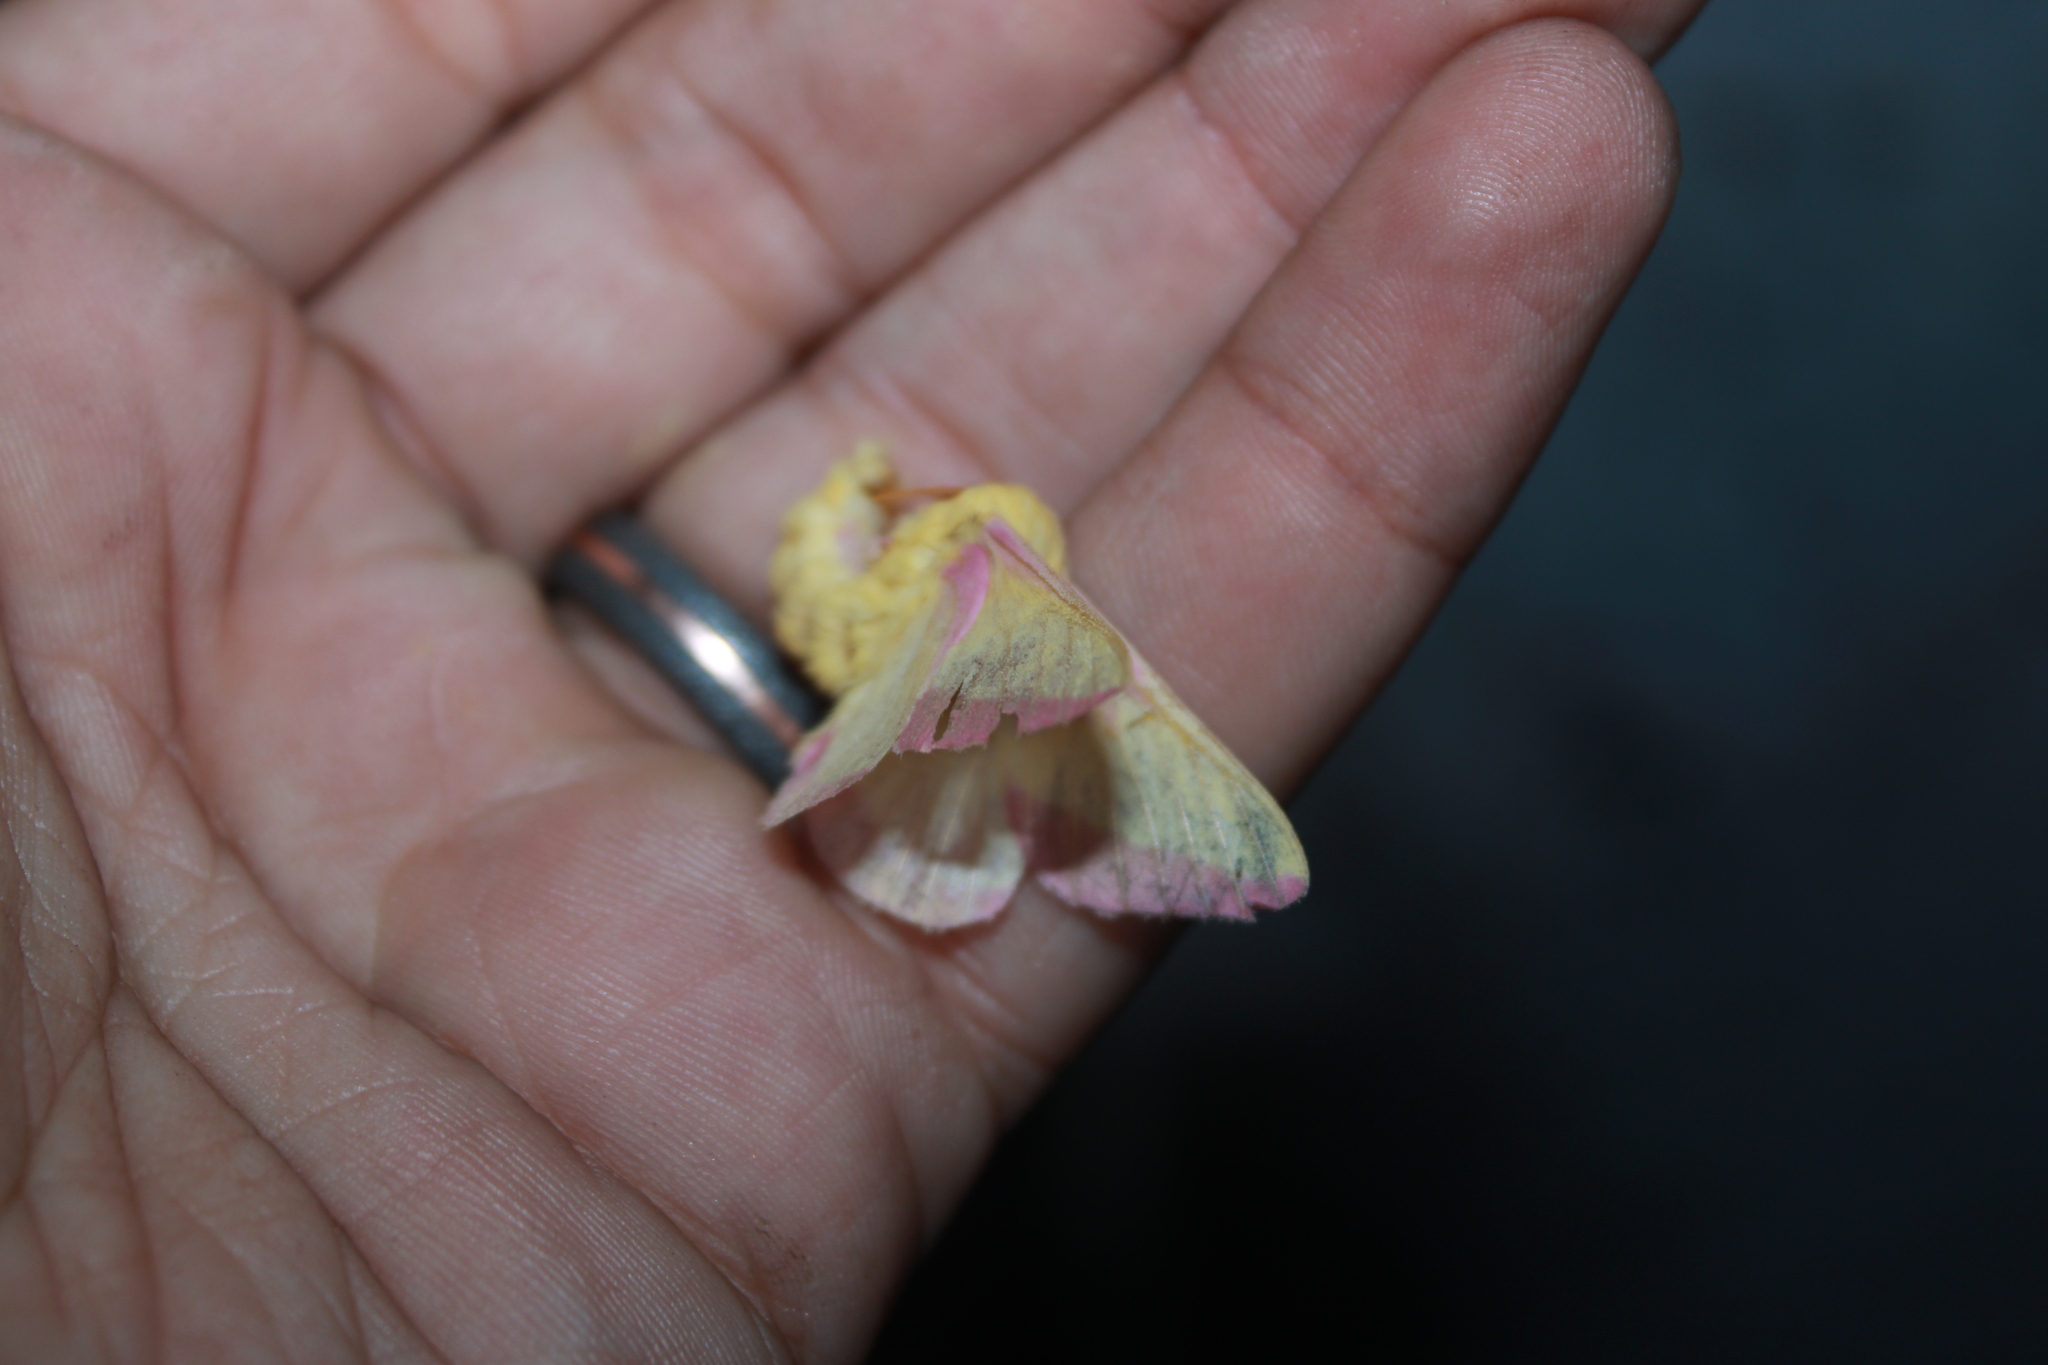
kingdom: Animalia
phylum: Arthropoda
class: Insecta
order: Lepidoptera
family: Saturniidae
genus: Dryocampa
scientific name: Dryocampa rubicunda
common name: Rosy maple moth
